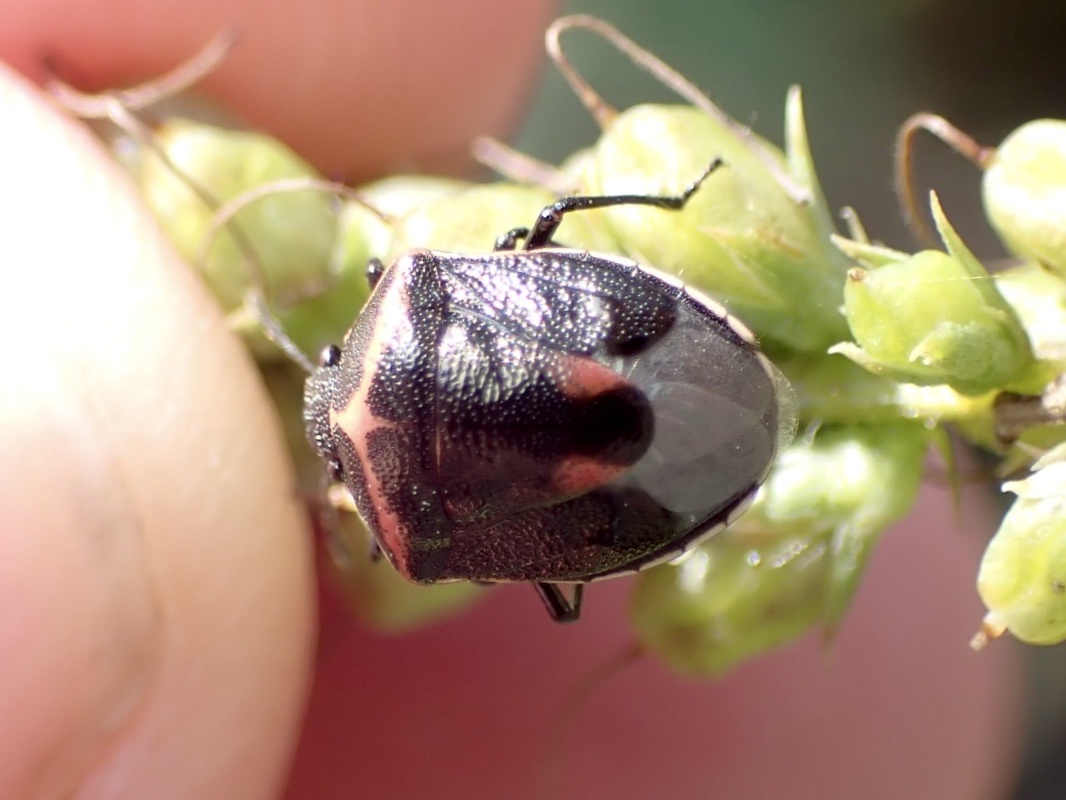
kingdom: Animalia
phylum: Arthropoda
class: Insecta
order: Hemiptera
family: Pentatomidae
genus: Cosmopepla
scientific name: Cosmopepla lintneriana
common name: Twice-stabbed stink bug
